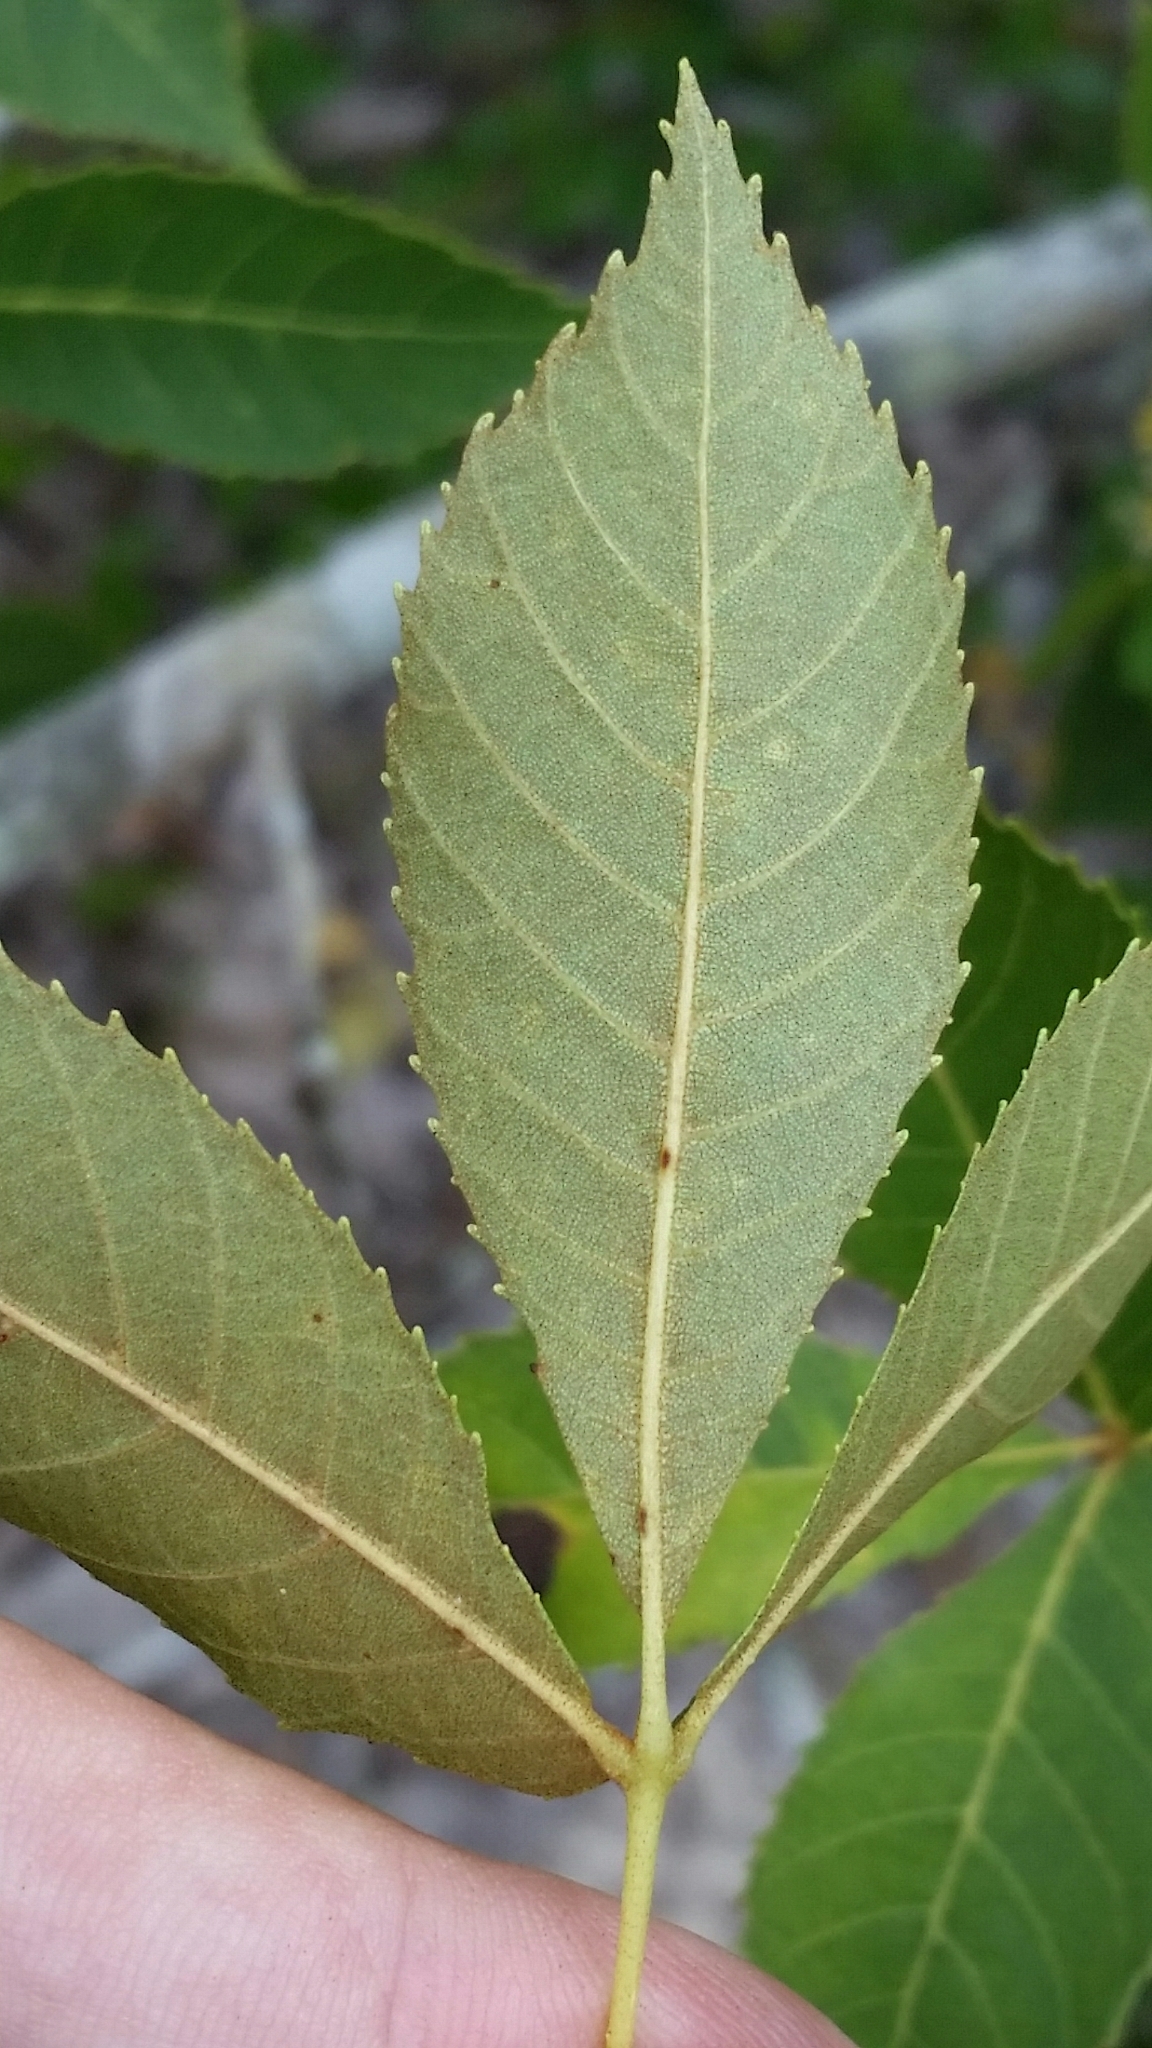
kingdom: Plantae
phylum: Tracheophyta
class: Magnoliopsida
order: Fagales
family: Juglandaceae
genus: Carya
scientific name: Carya floridana
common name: Scrub hickory
